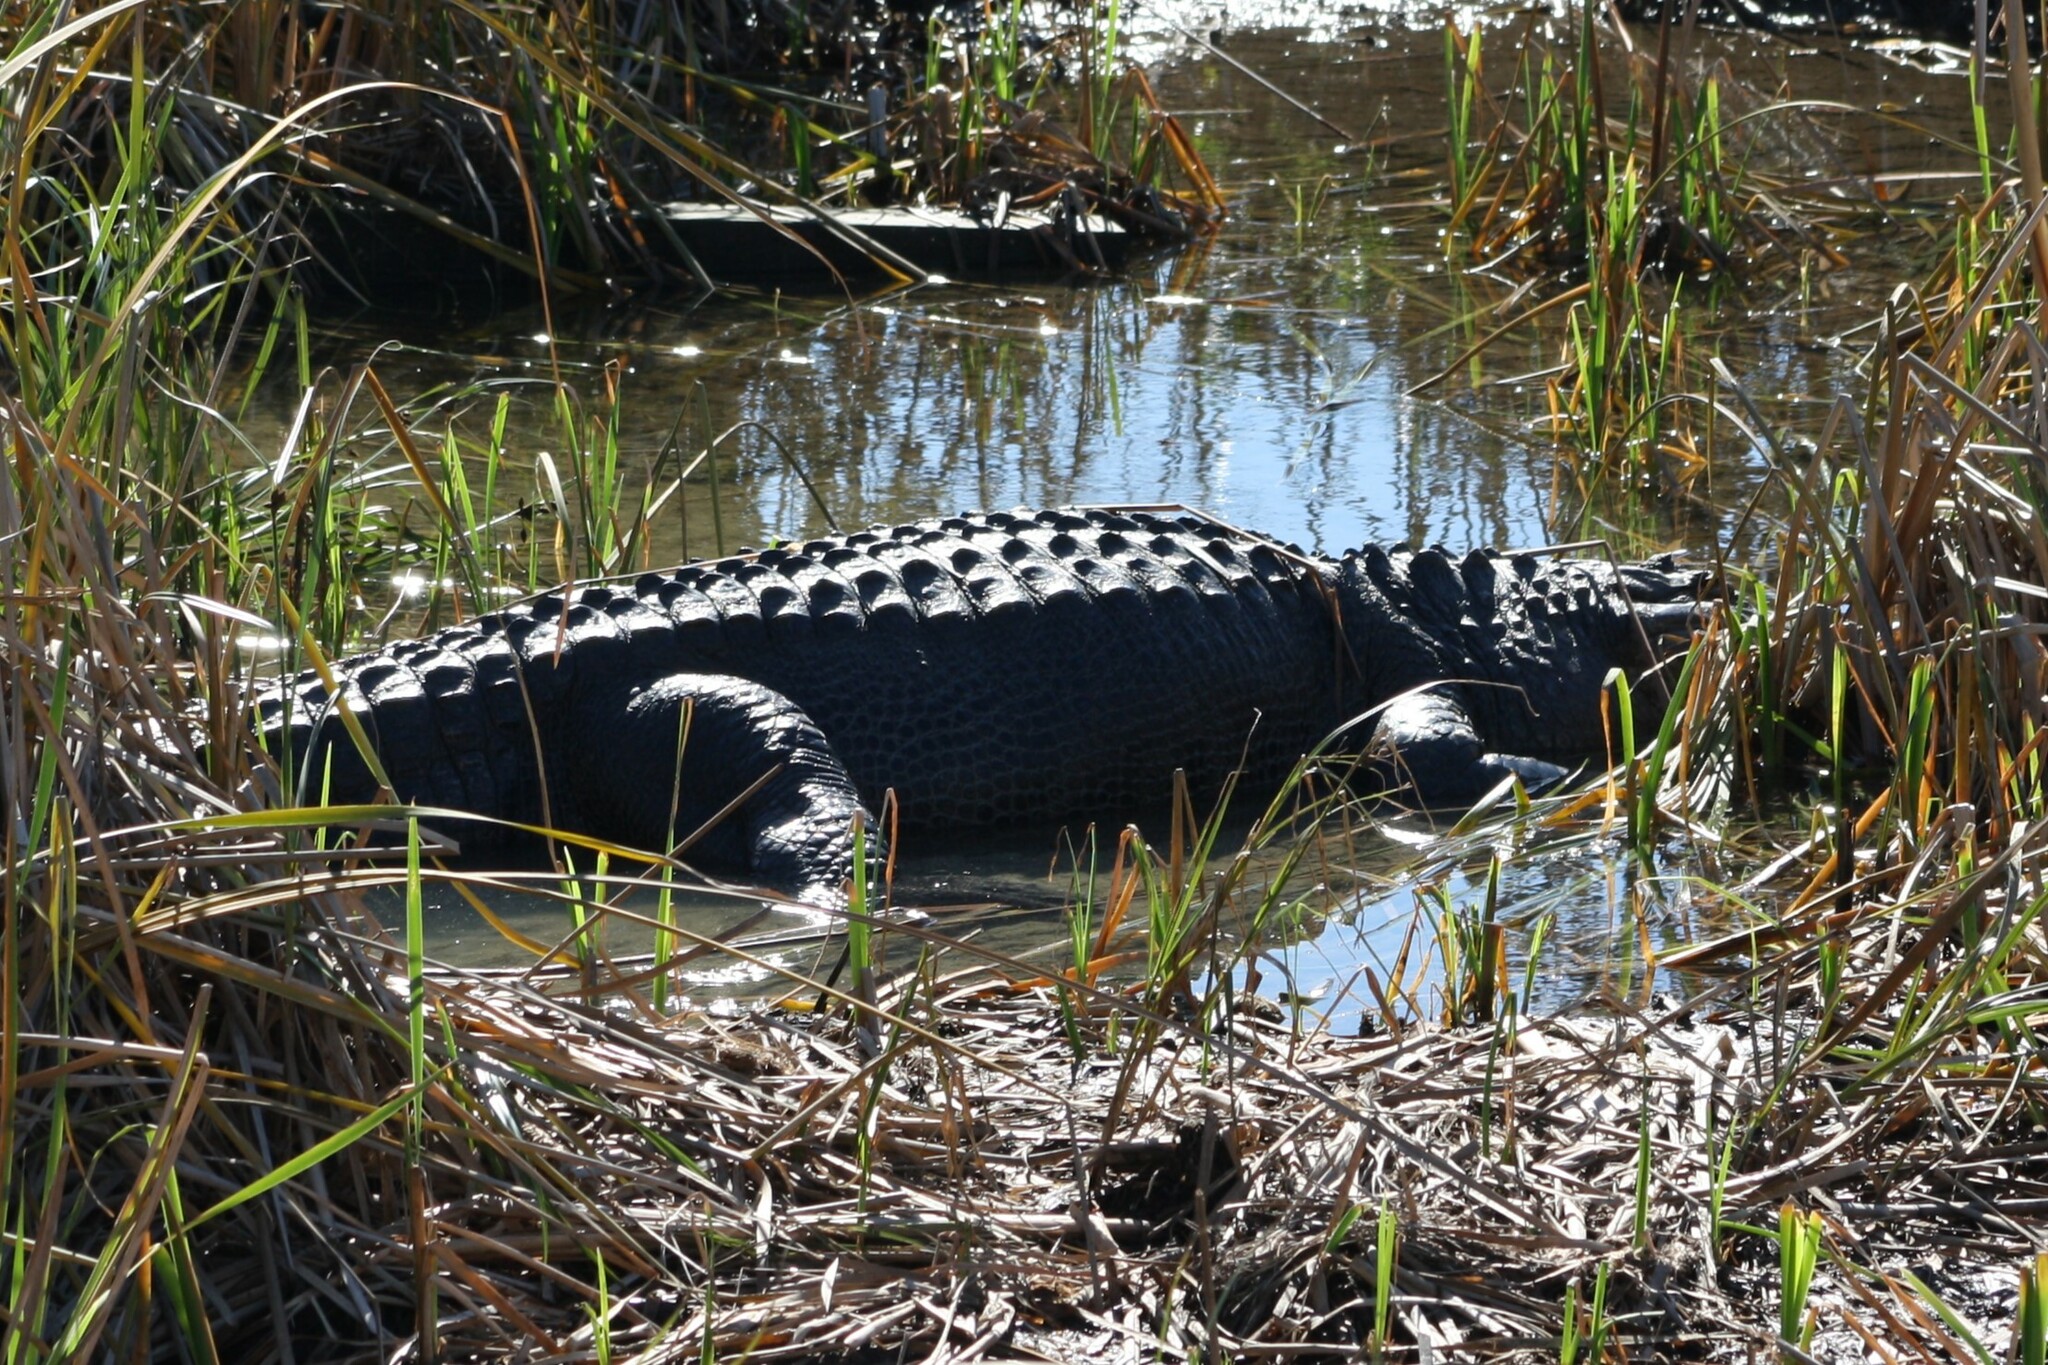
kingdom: Animalia
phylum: Chordata
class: Crocodylia
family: Alligatoridae
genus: Alligator
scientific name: Alligator mississippiensis
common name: American alligator
